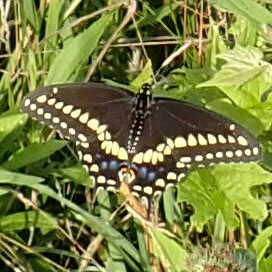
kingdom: Animalia
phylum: Arthropoda
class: Insecta
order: Lepidoptera
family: Papilionidae
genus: Papilio
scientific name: Papilio polyxenes
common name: Black swallowtail
